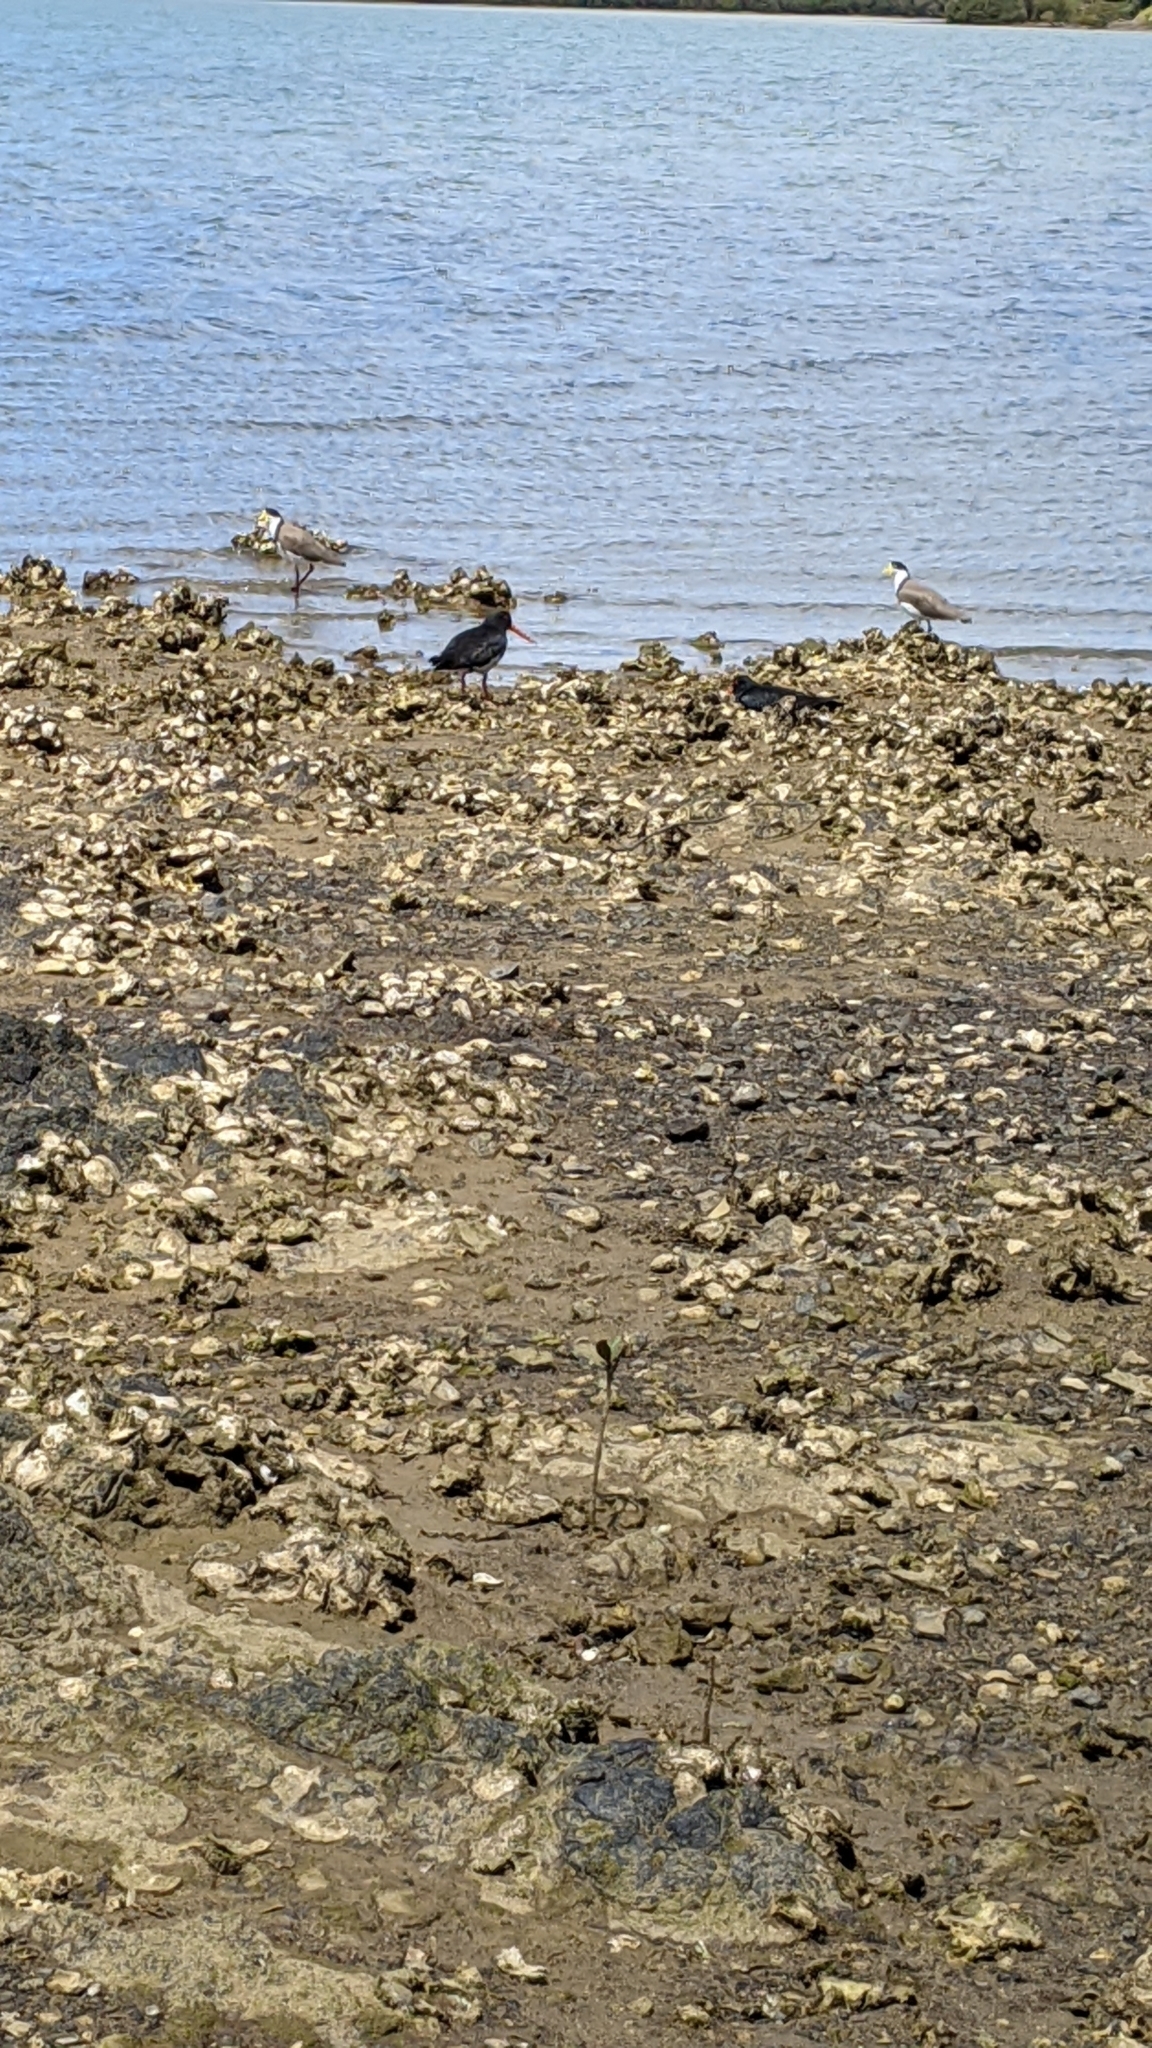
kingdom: Animalia
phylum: Chordata
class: Aves
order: Charadriiformes
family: Haematopodidae
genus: Haematopus
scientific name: Haematopus unicolor
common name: Variable oystercatcher
